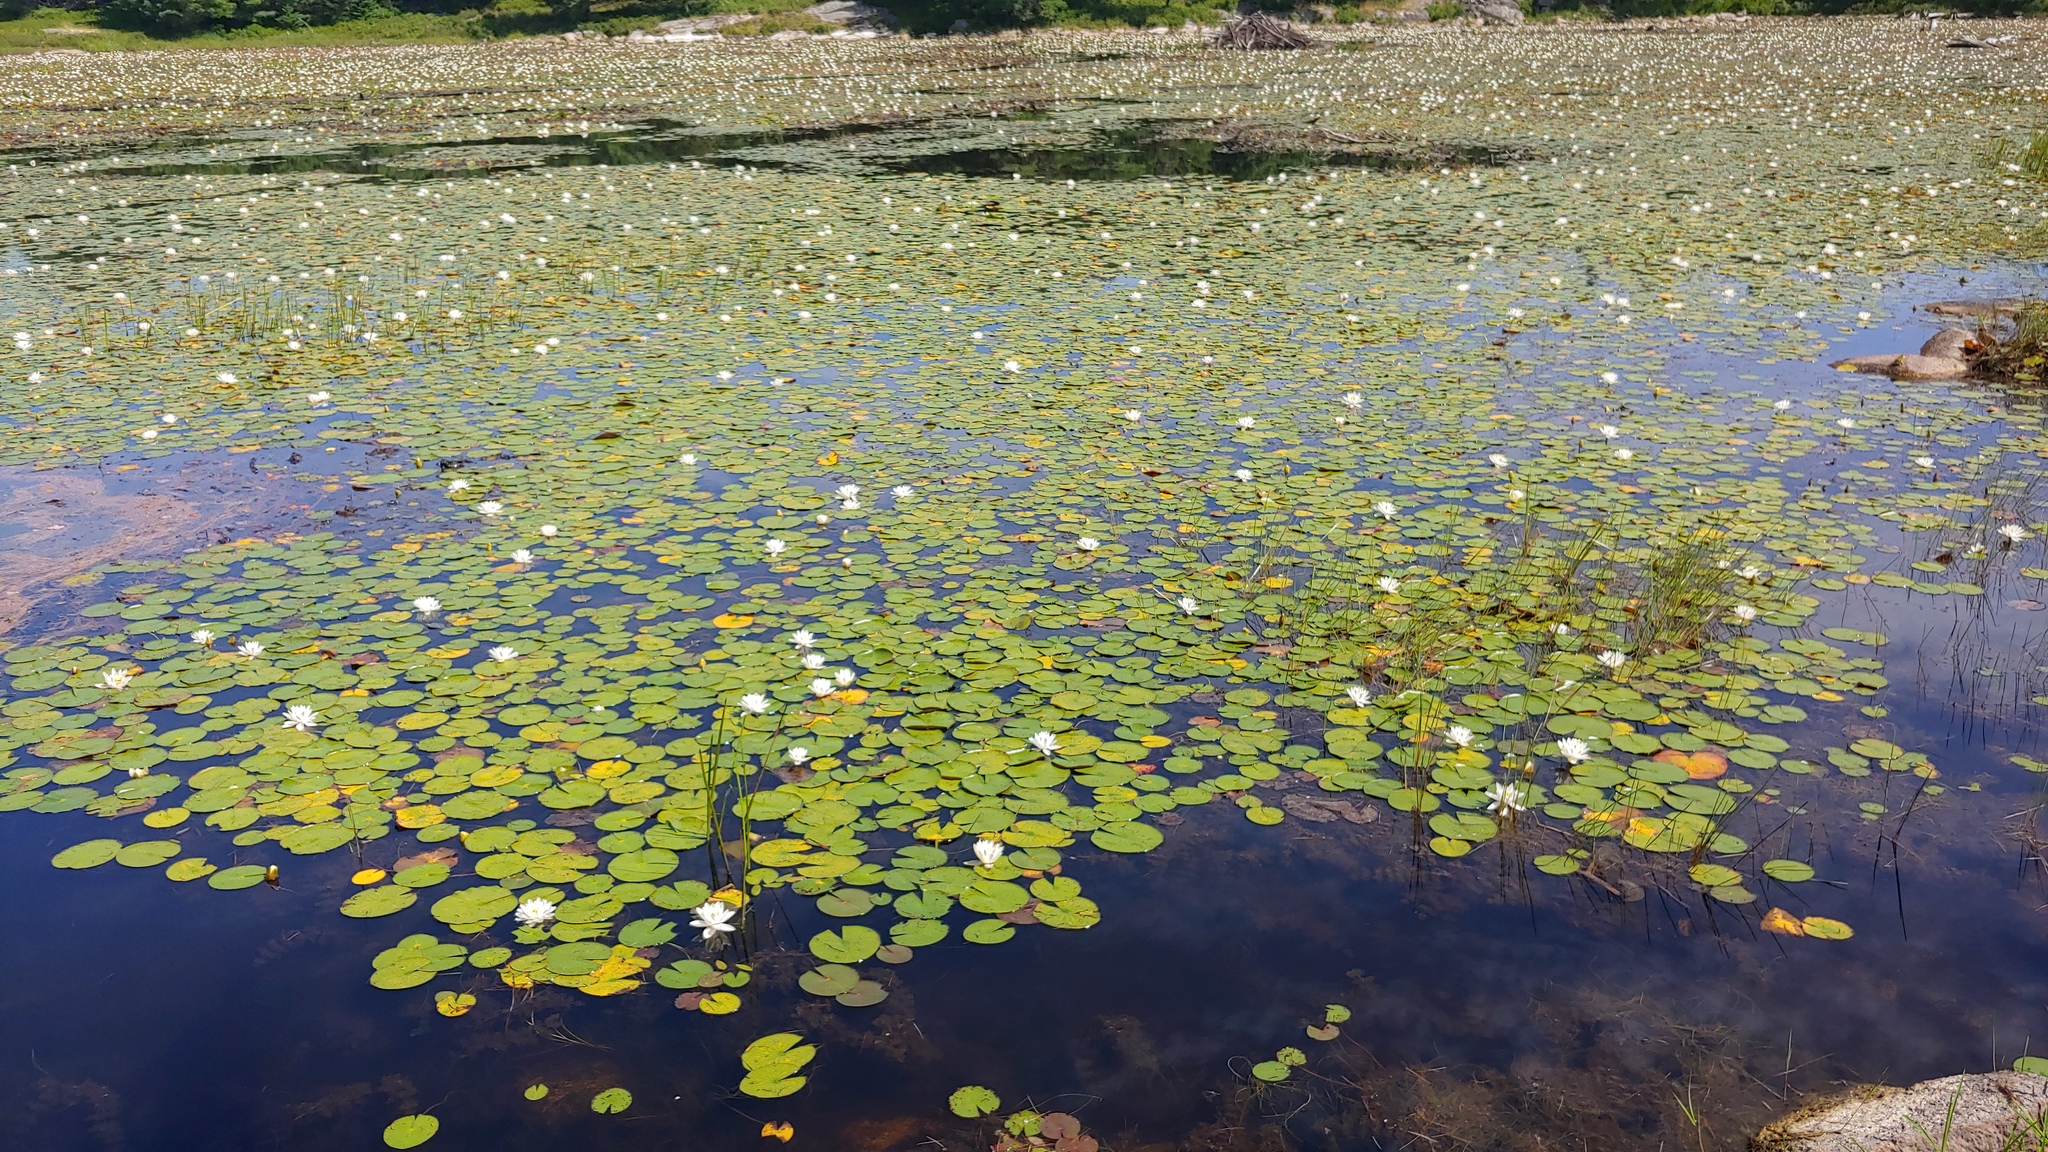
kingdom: Plantae
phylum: Tracheophyta
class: Magnoliopsida
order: Nymphaeales
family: Nymphaeaceae
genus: Nymphaea
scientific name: Nymphaea odorata
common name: Fragrant water-lily
